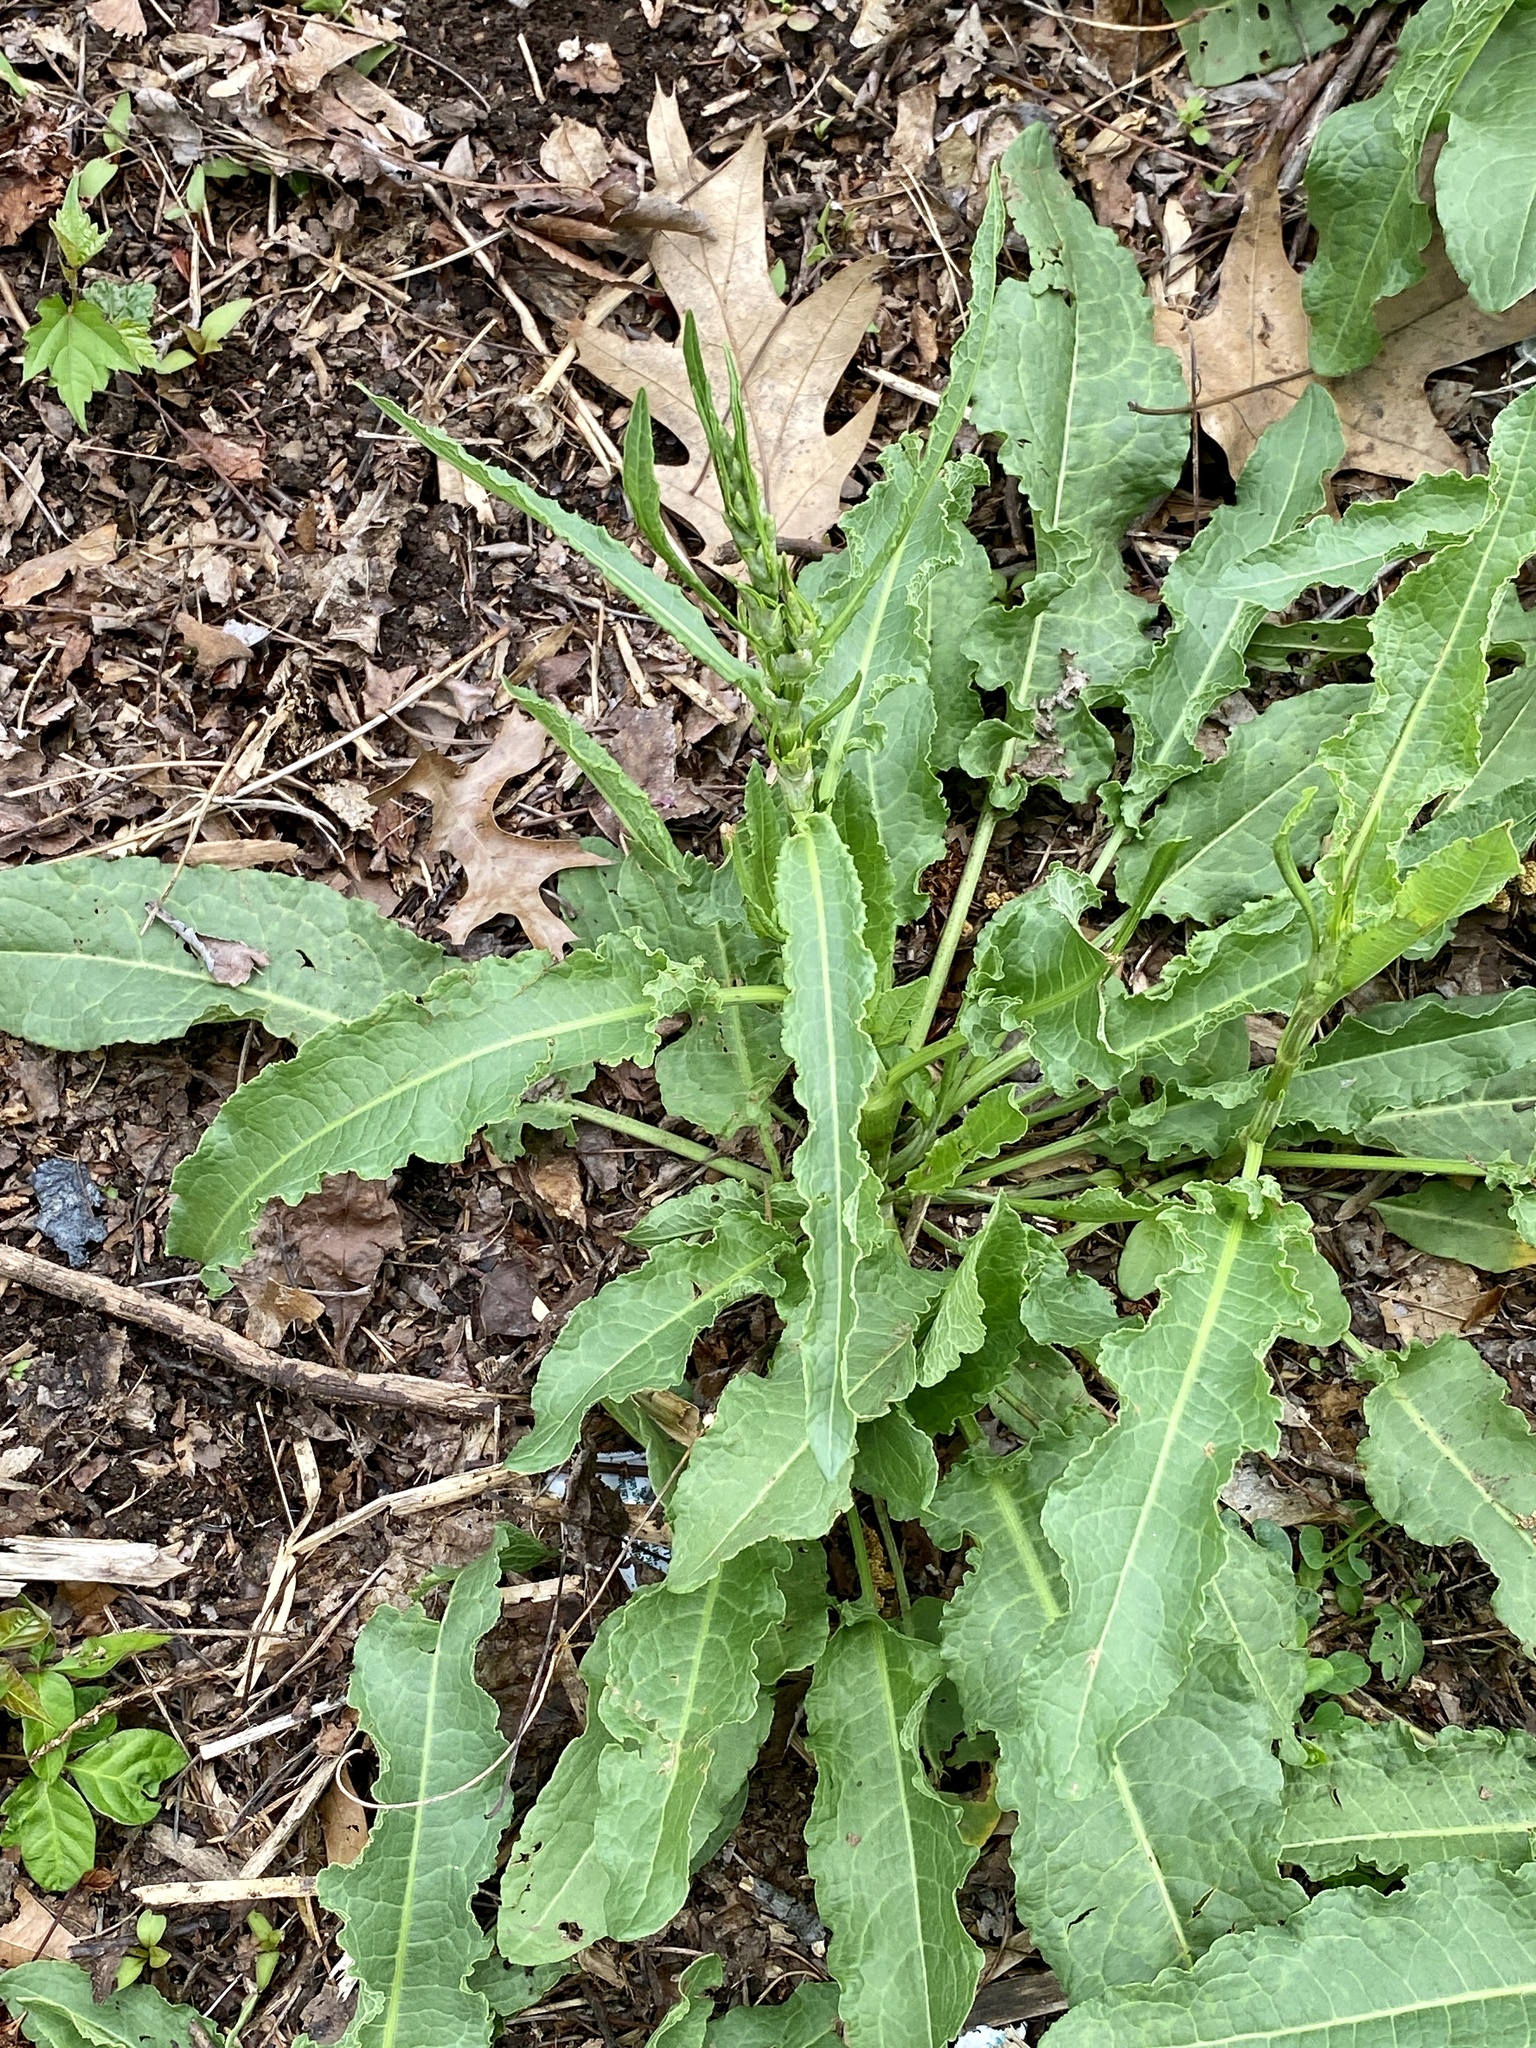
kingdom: Plantae
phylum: Tracheophyta
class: Magnoliopsida
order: Caryophyllales
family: Polygonaceae
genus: Rumex
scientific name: Rumex crispus
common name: Curled dock
